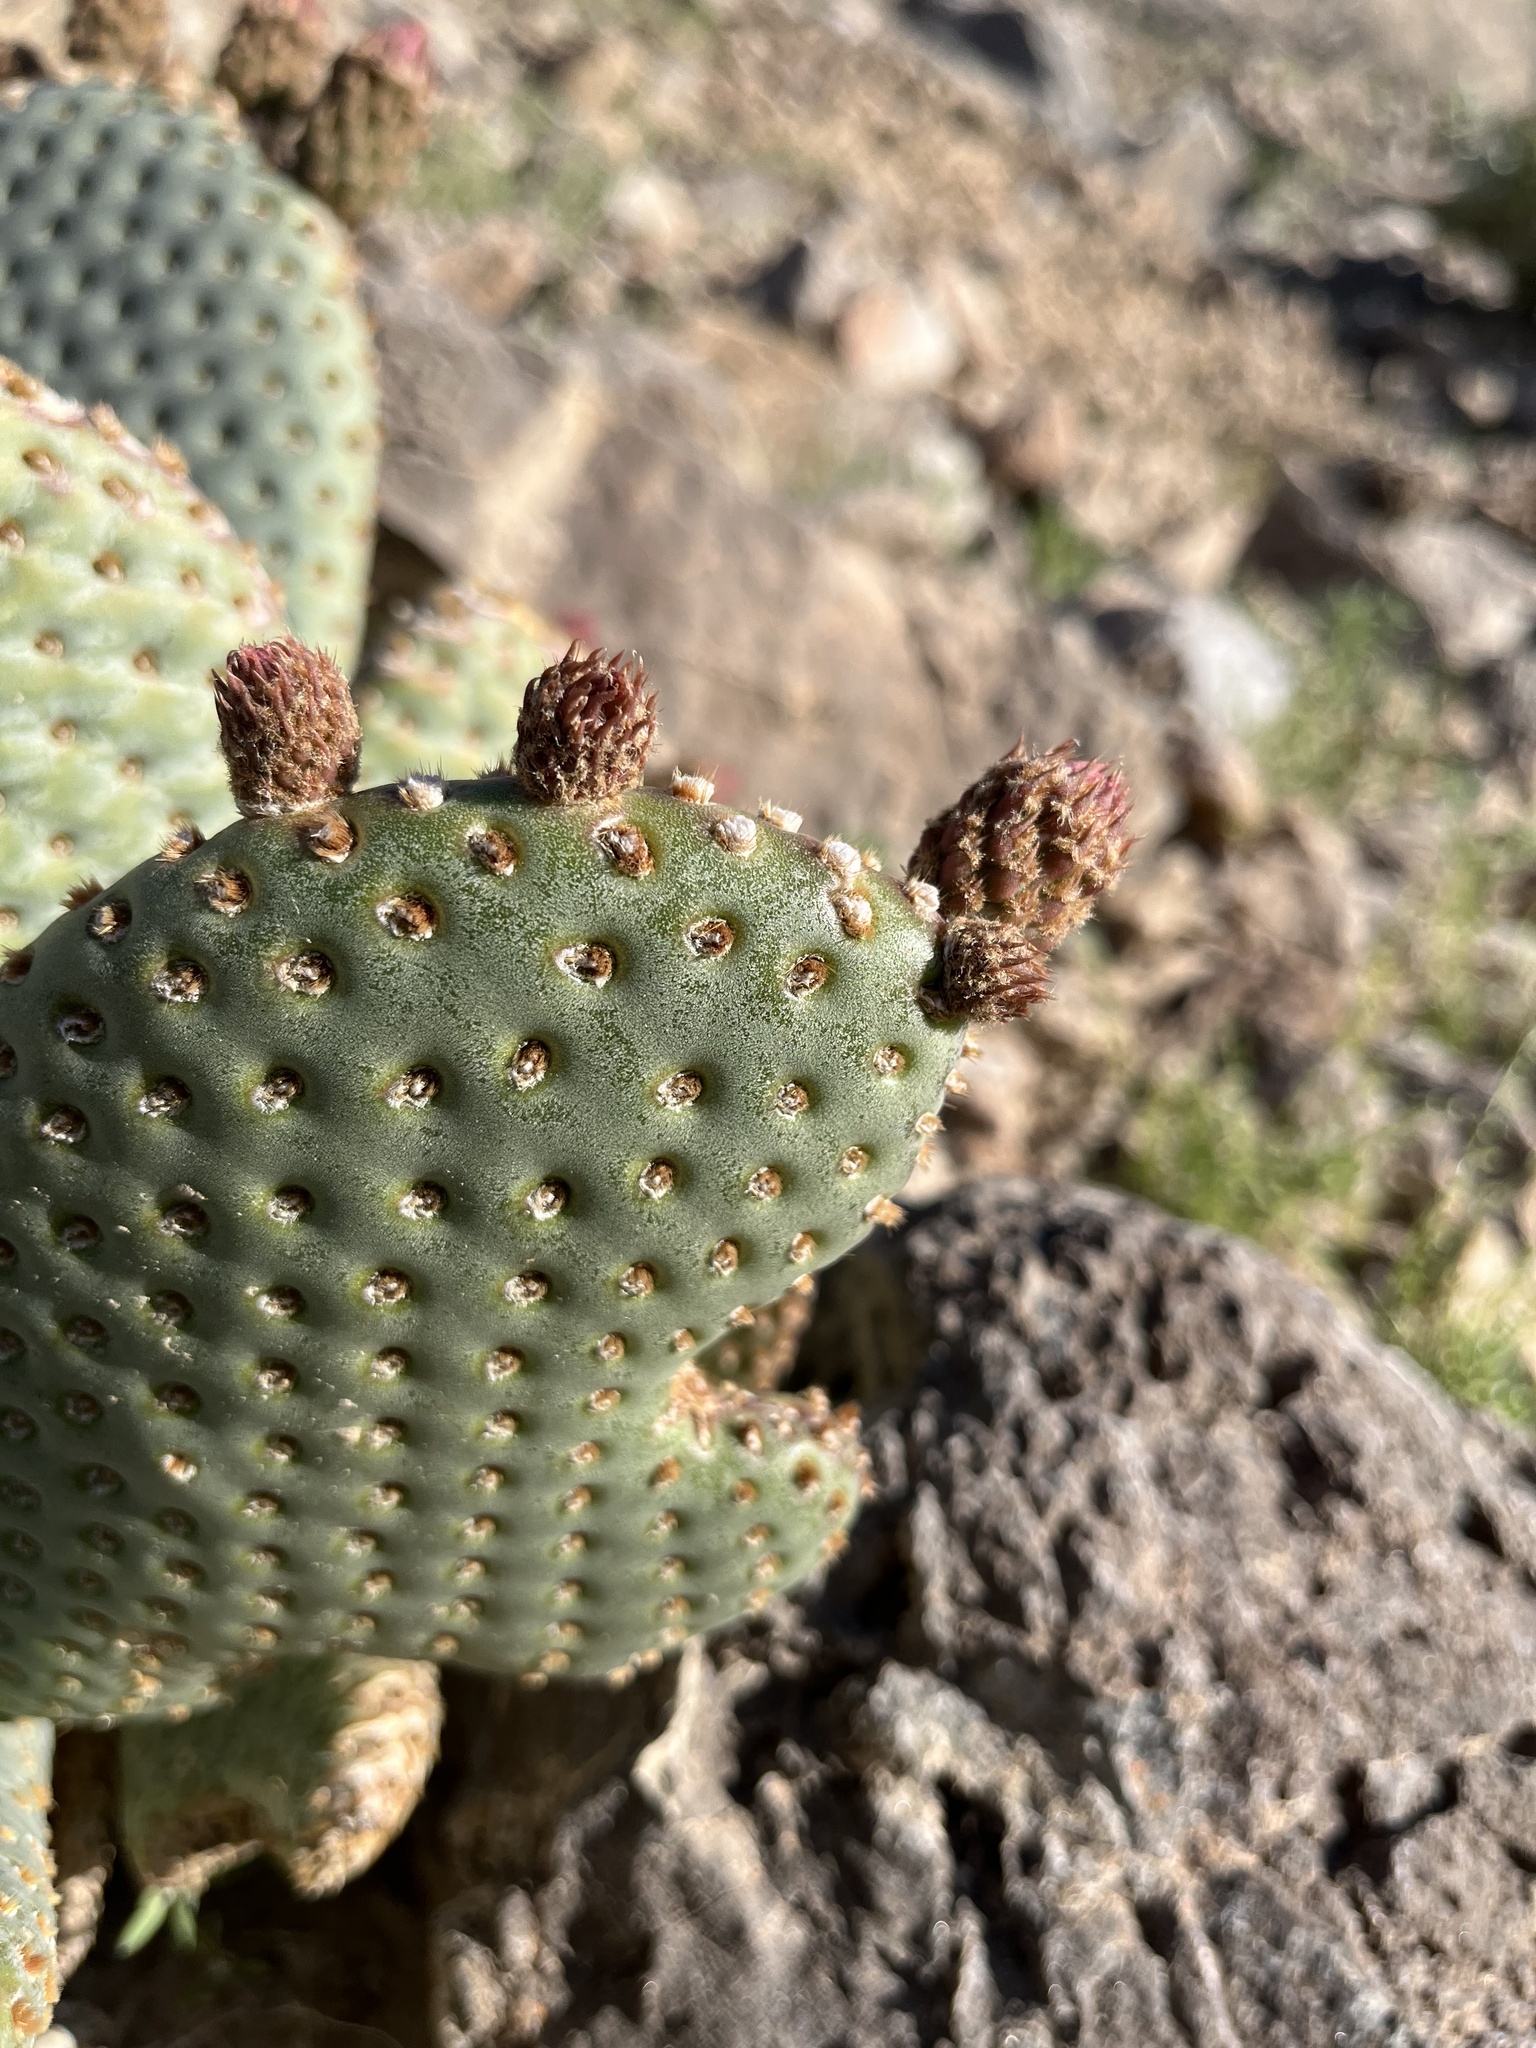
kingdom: Plantae
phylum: Tracheophyta
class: Magnoliopsida
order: Caryophyllales
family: Cactaceae
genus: Opuntia
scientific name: Opuntia basilaris
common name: Beavertail prickly-pear
